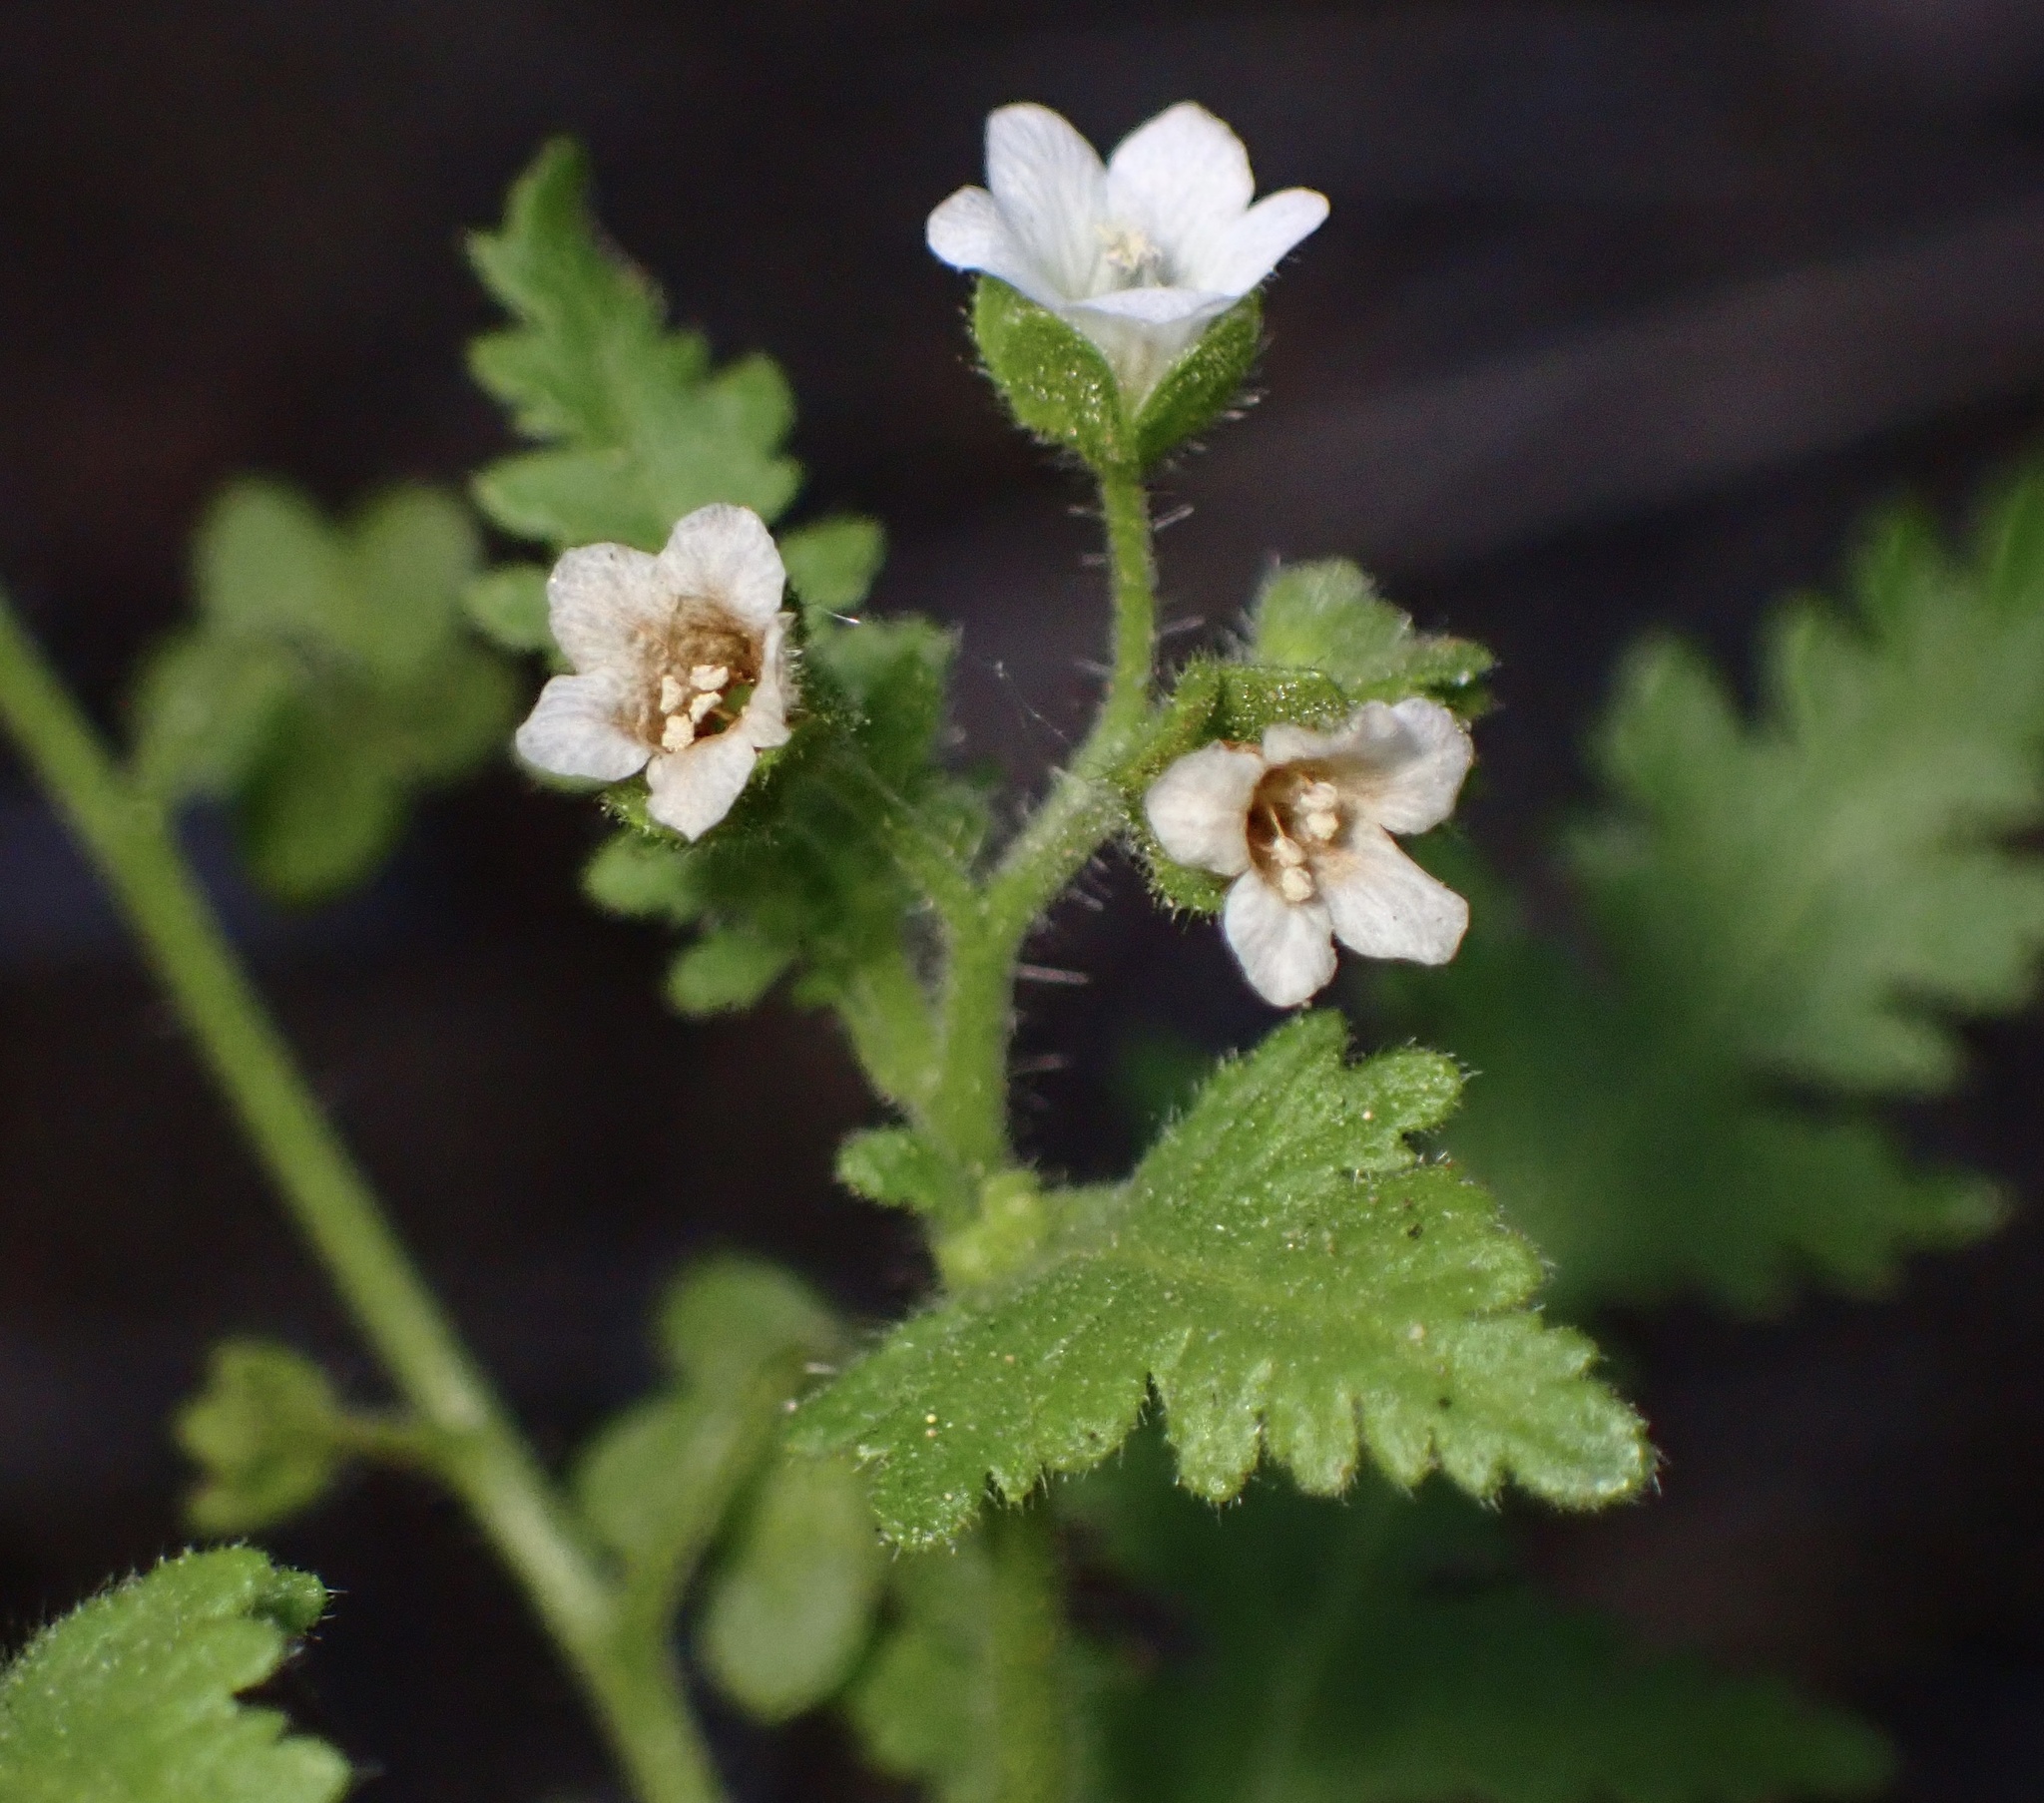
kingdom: Plantae
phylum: Tracheophyta
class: Magnoliopsida
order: Boraginales
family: Hydrophyllaceae
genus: Eucrypta
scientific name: Eucrypta chrysanthemifolia
